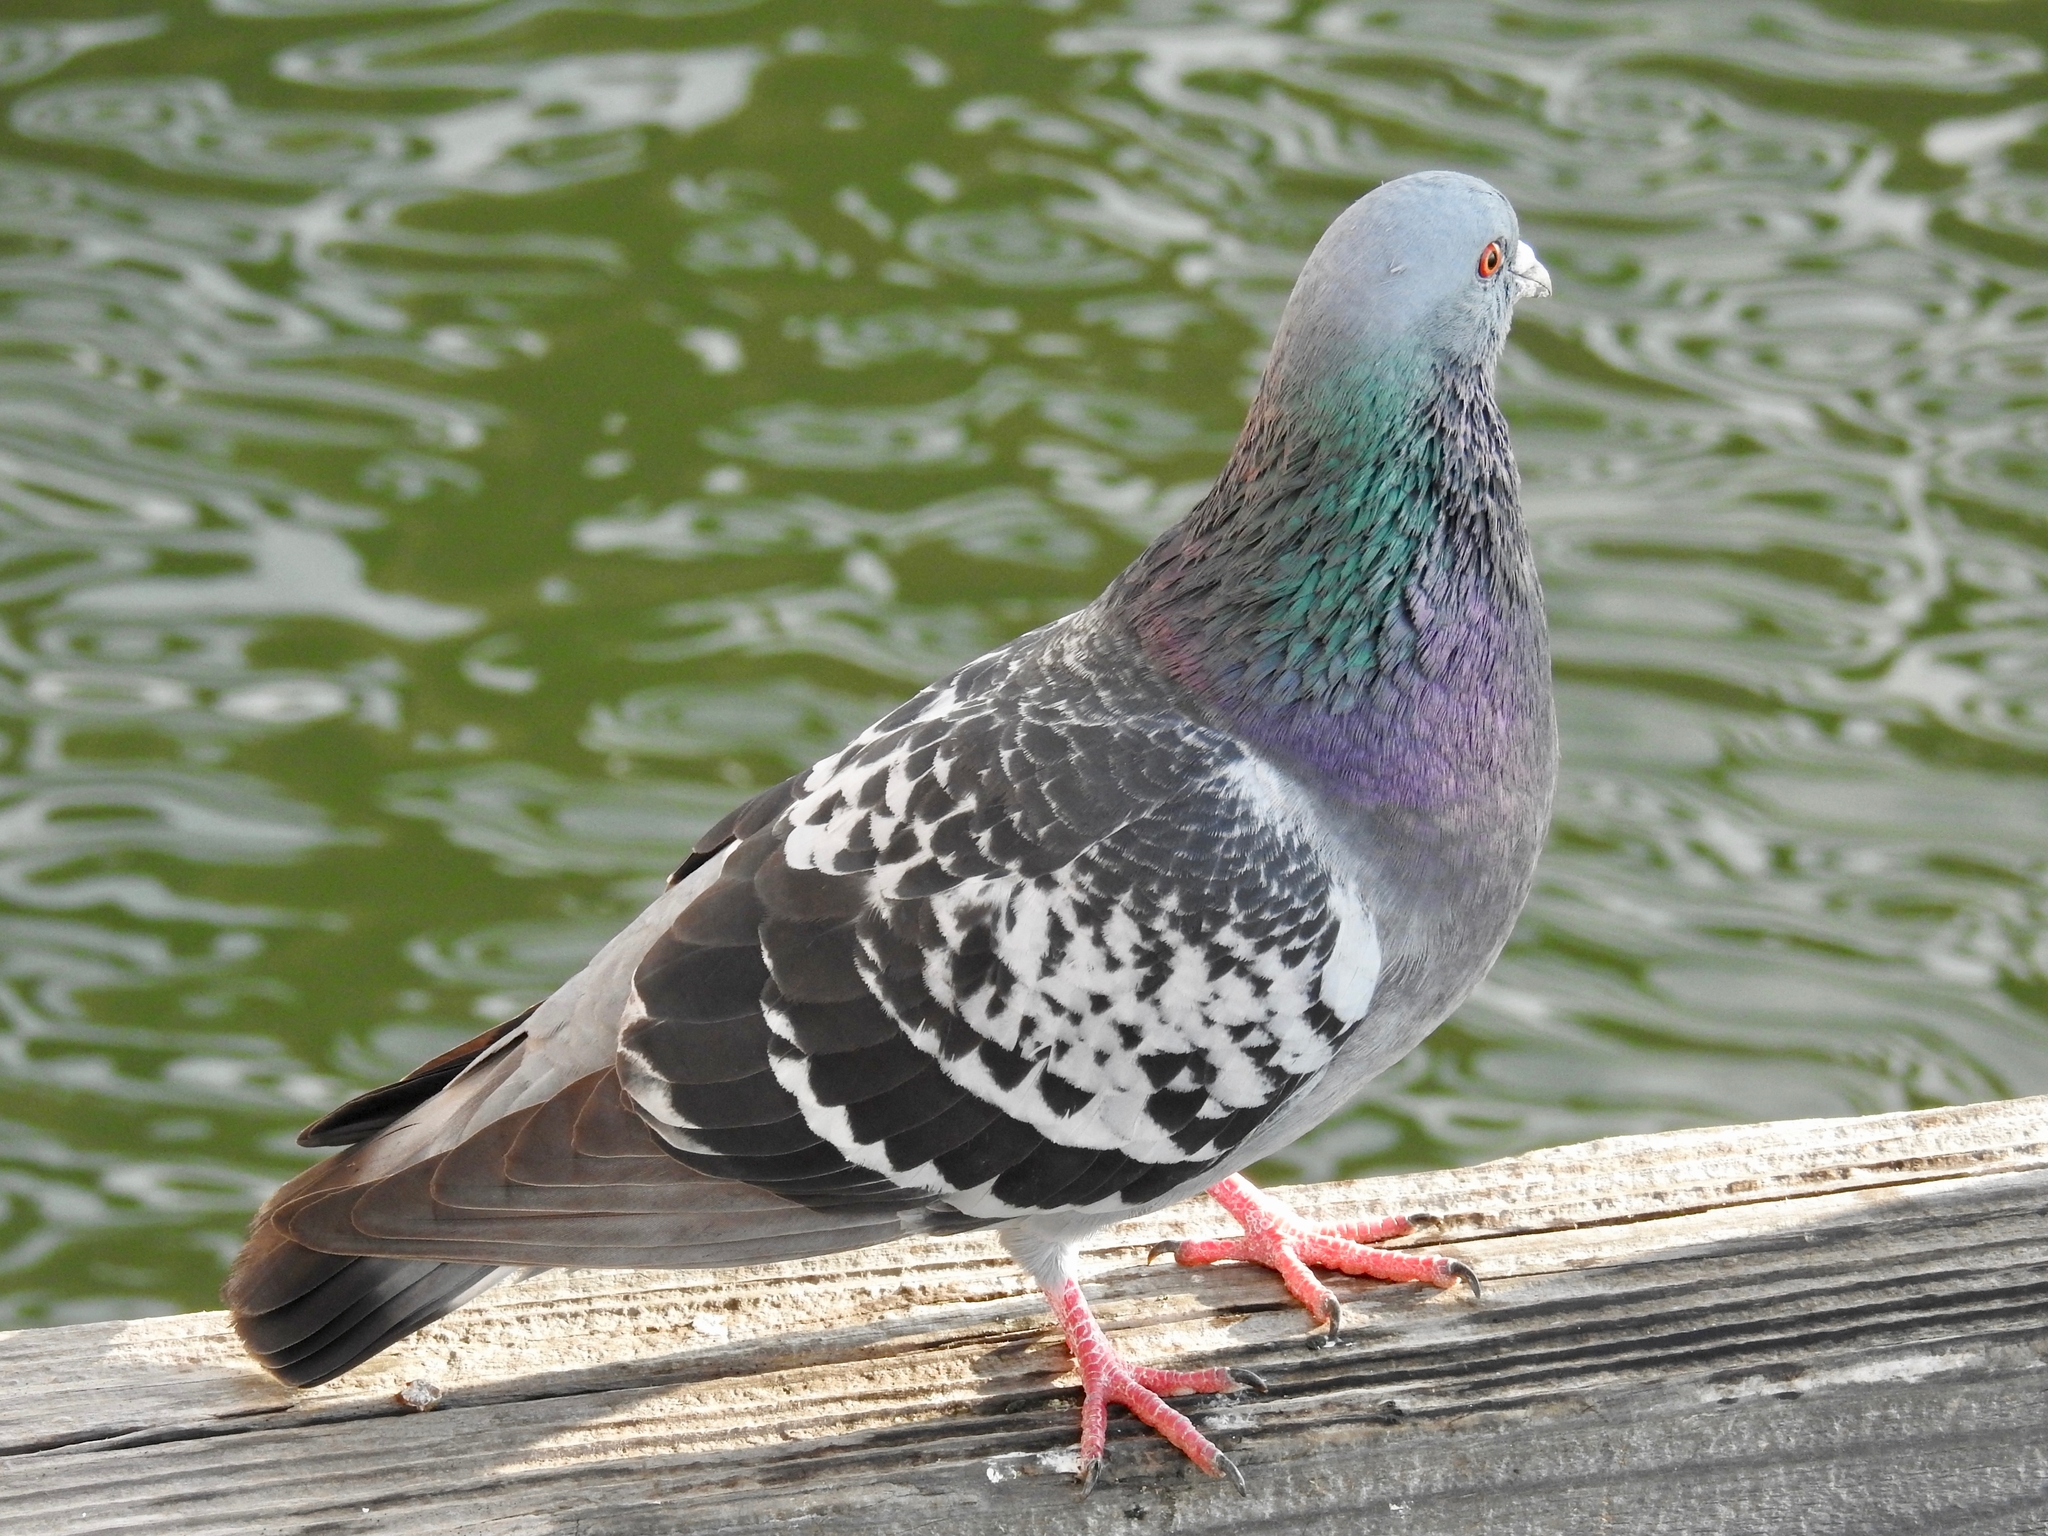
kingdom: Animalia
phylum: Chordata
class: Aves
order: Columbiformes
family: Columbidae
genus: Columba
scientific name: Columba livia
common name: Rock pigeon
